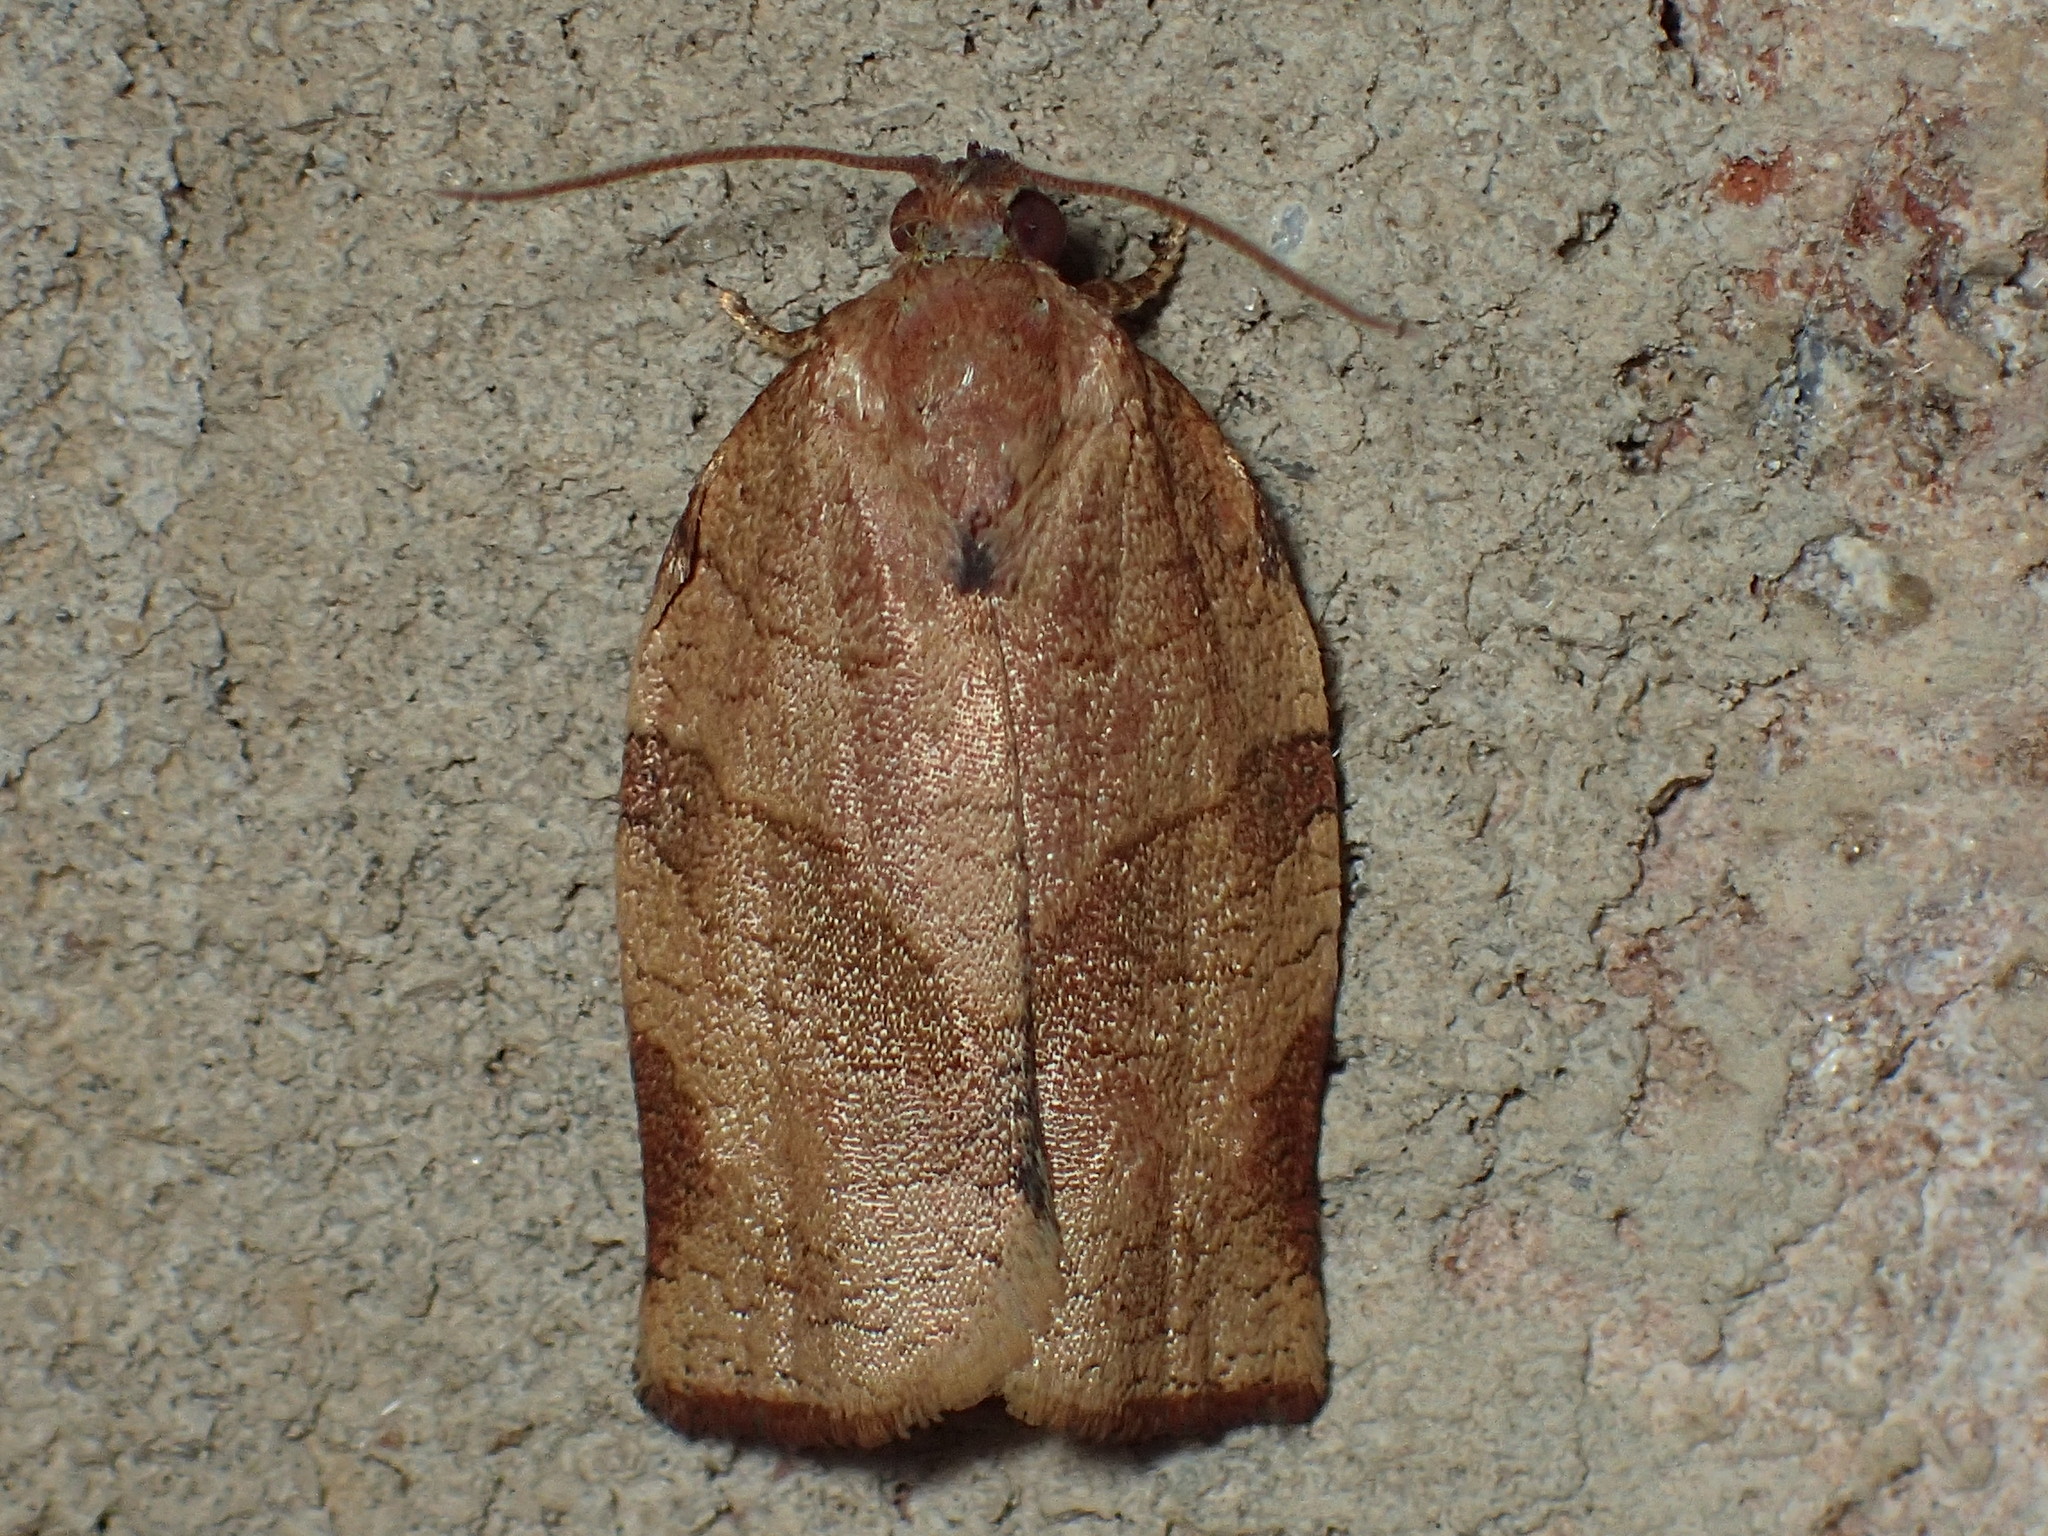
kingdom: Animalia
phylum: Arthropoda
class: Insecta
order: Lepidoptera
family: Tortricidae
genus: Choristoneura
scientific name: Choristoneura rosaceana
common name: Oblique-banded leafroller moth
